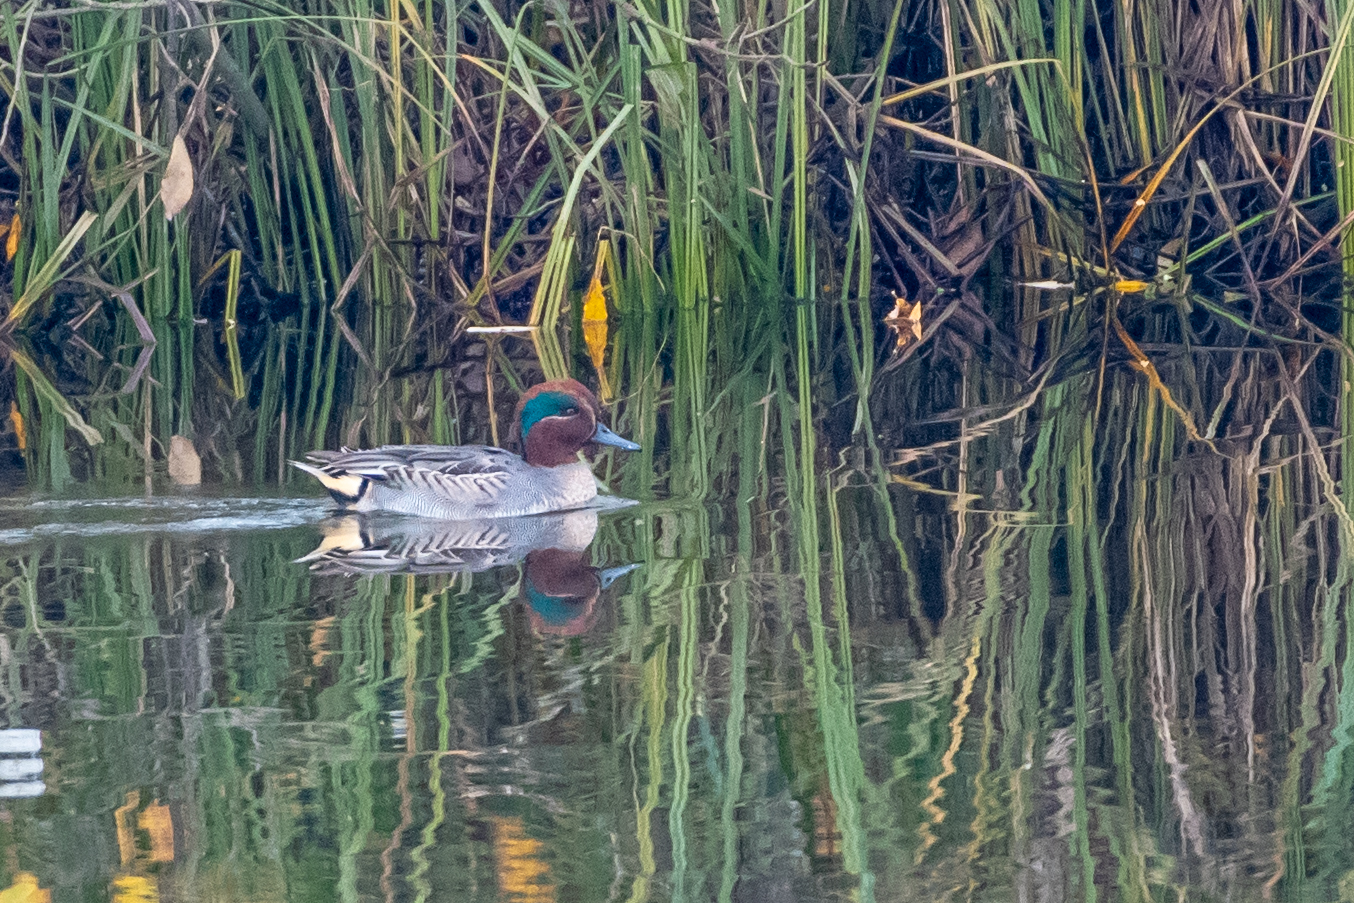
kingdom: Animalia
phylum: Chordata
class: Aves
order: Anseriformes
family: Anatidae
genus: Anas
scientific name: Anas crecca
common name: Eurasian teal
